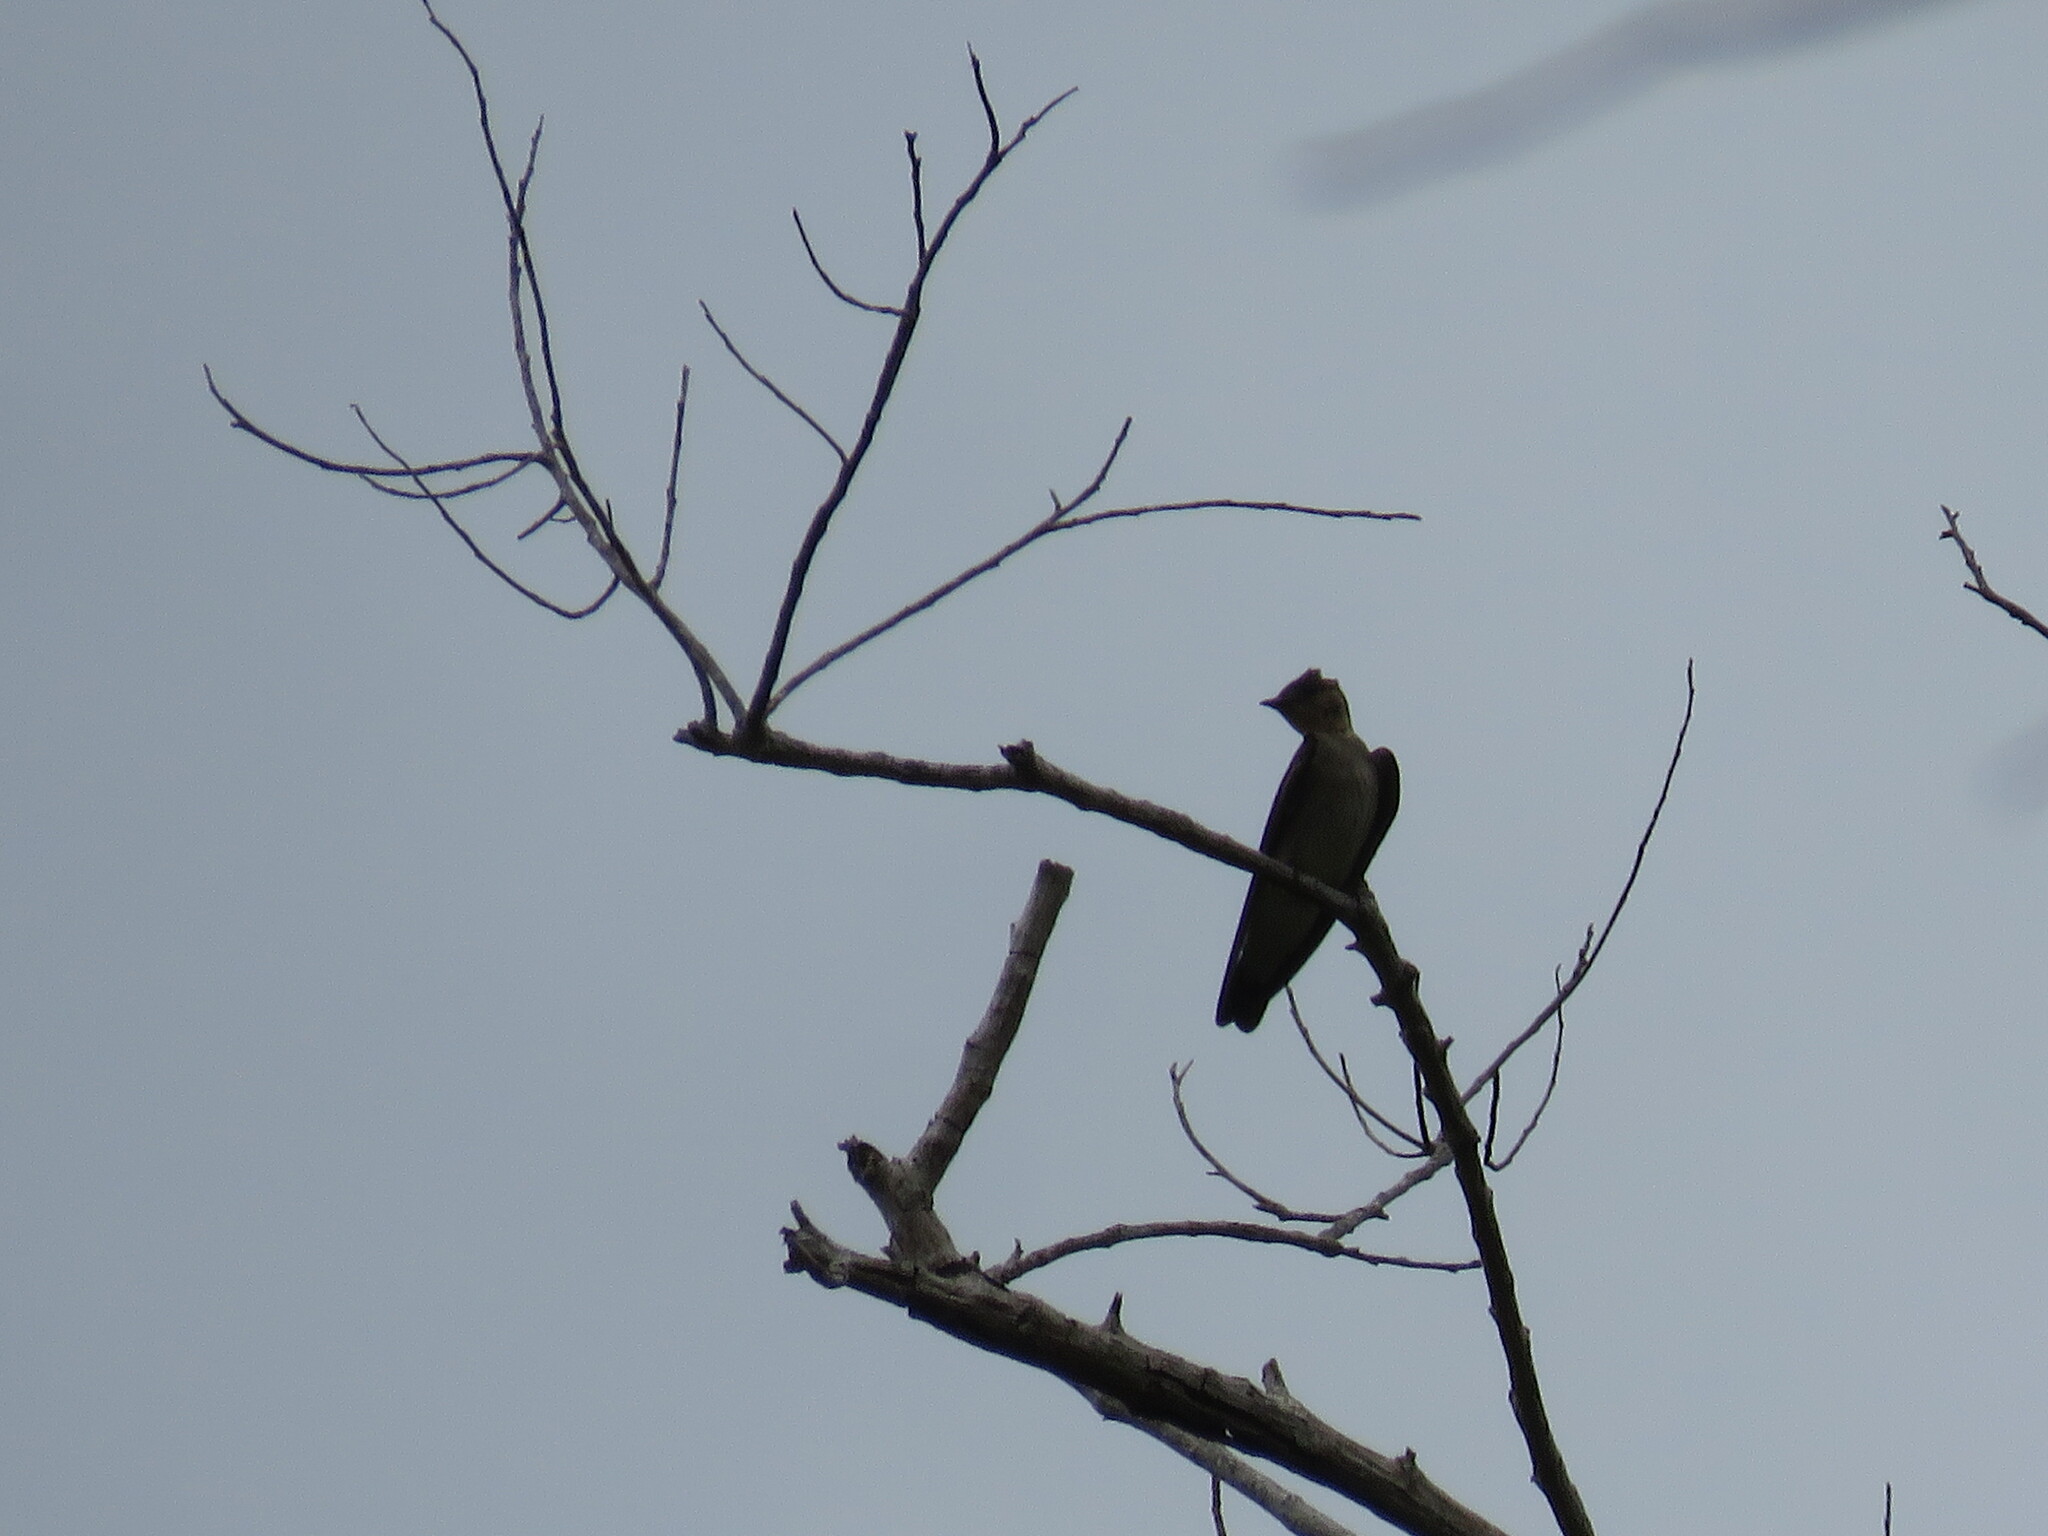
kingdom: Animalia
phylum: Chordata
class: Aves
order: Passeriformes
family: Hirundinidae
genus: Stelgidopteryx
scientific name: Stelgidopteryx ruficollis
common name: Southern rough-winged swallow
